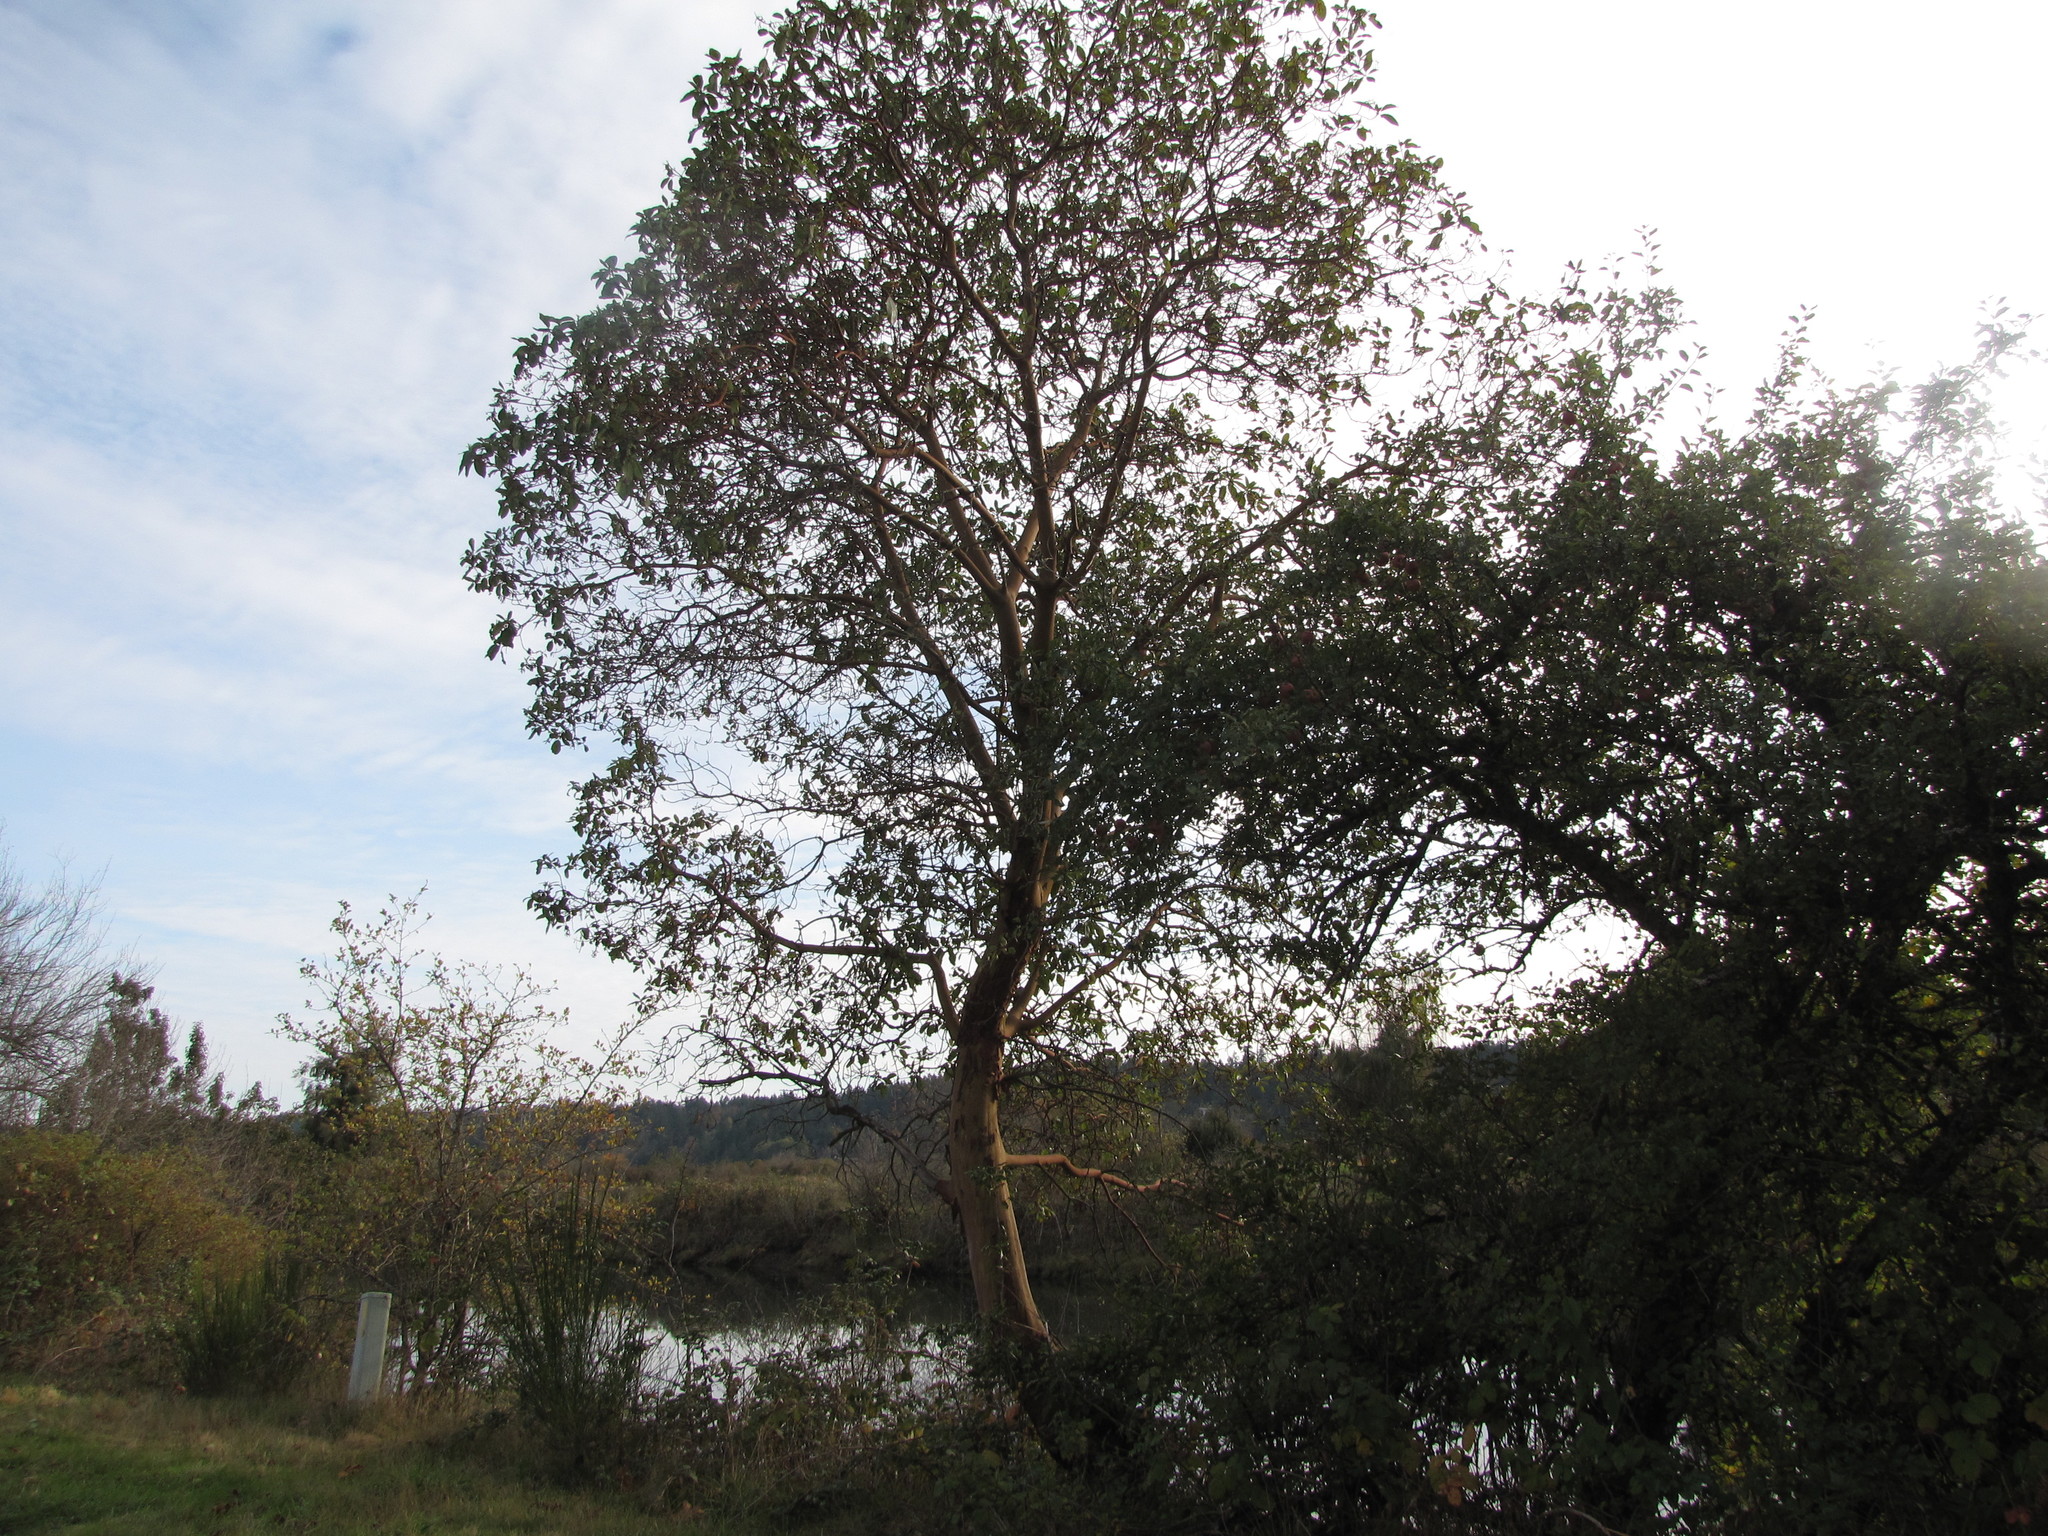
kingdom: Plantae
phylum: Tracheophyta
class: Magnoliopsida
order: Ericales
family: Ericaceae
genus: Arbutus
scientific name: Arbutus menziesii
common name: Pacific madrone
